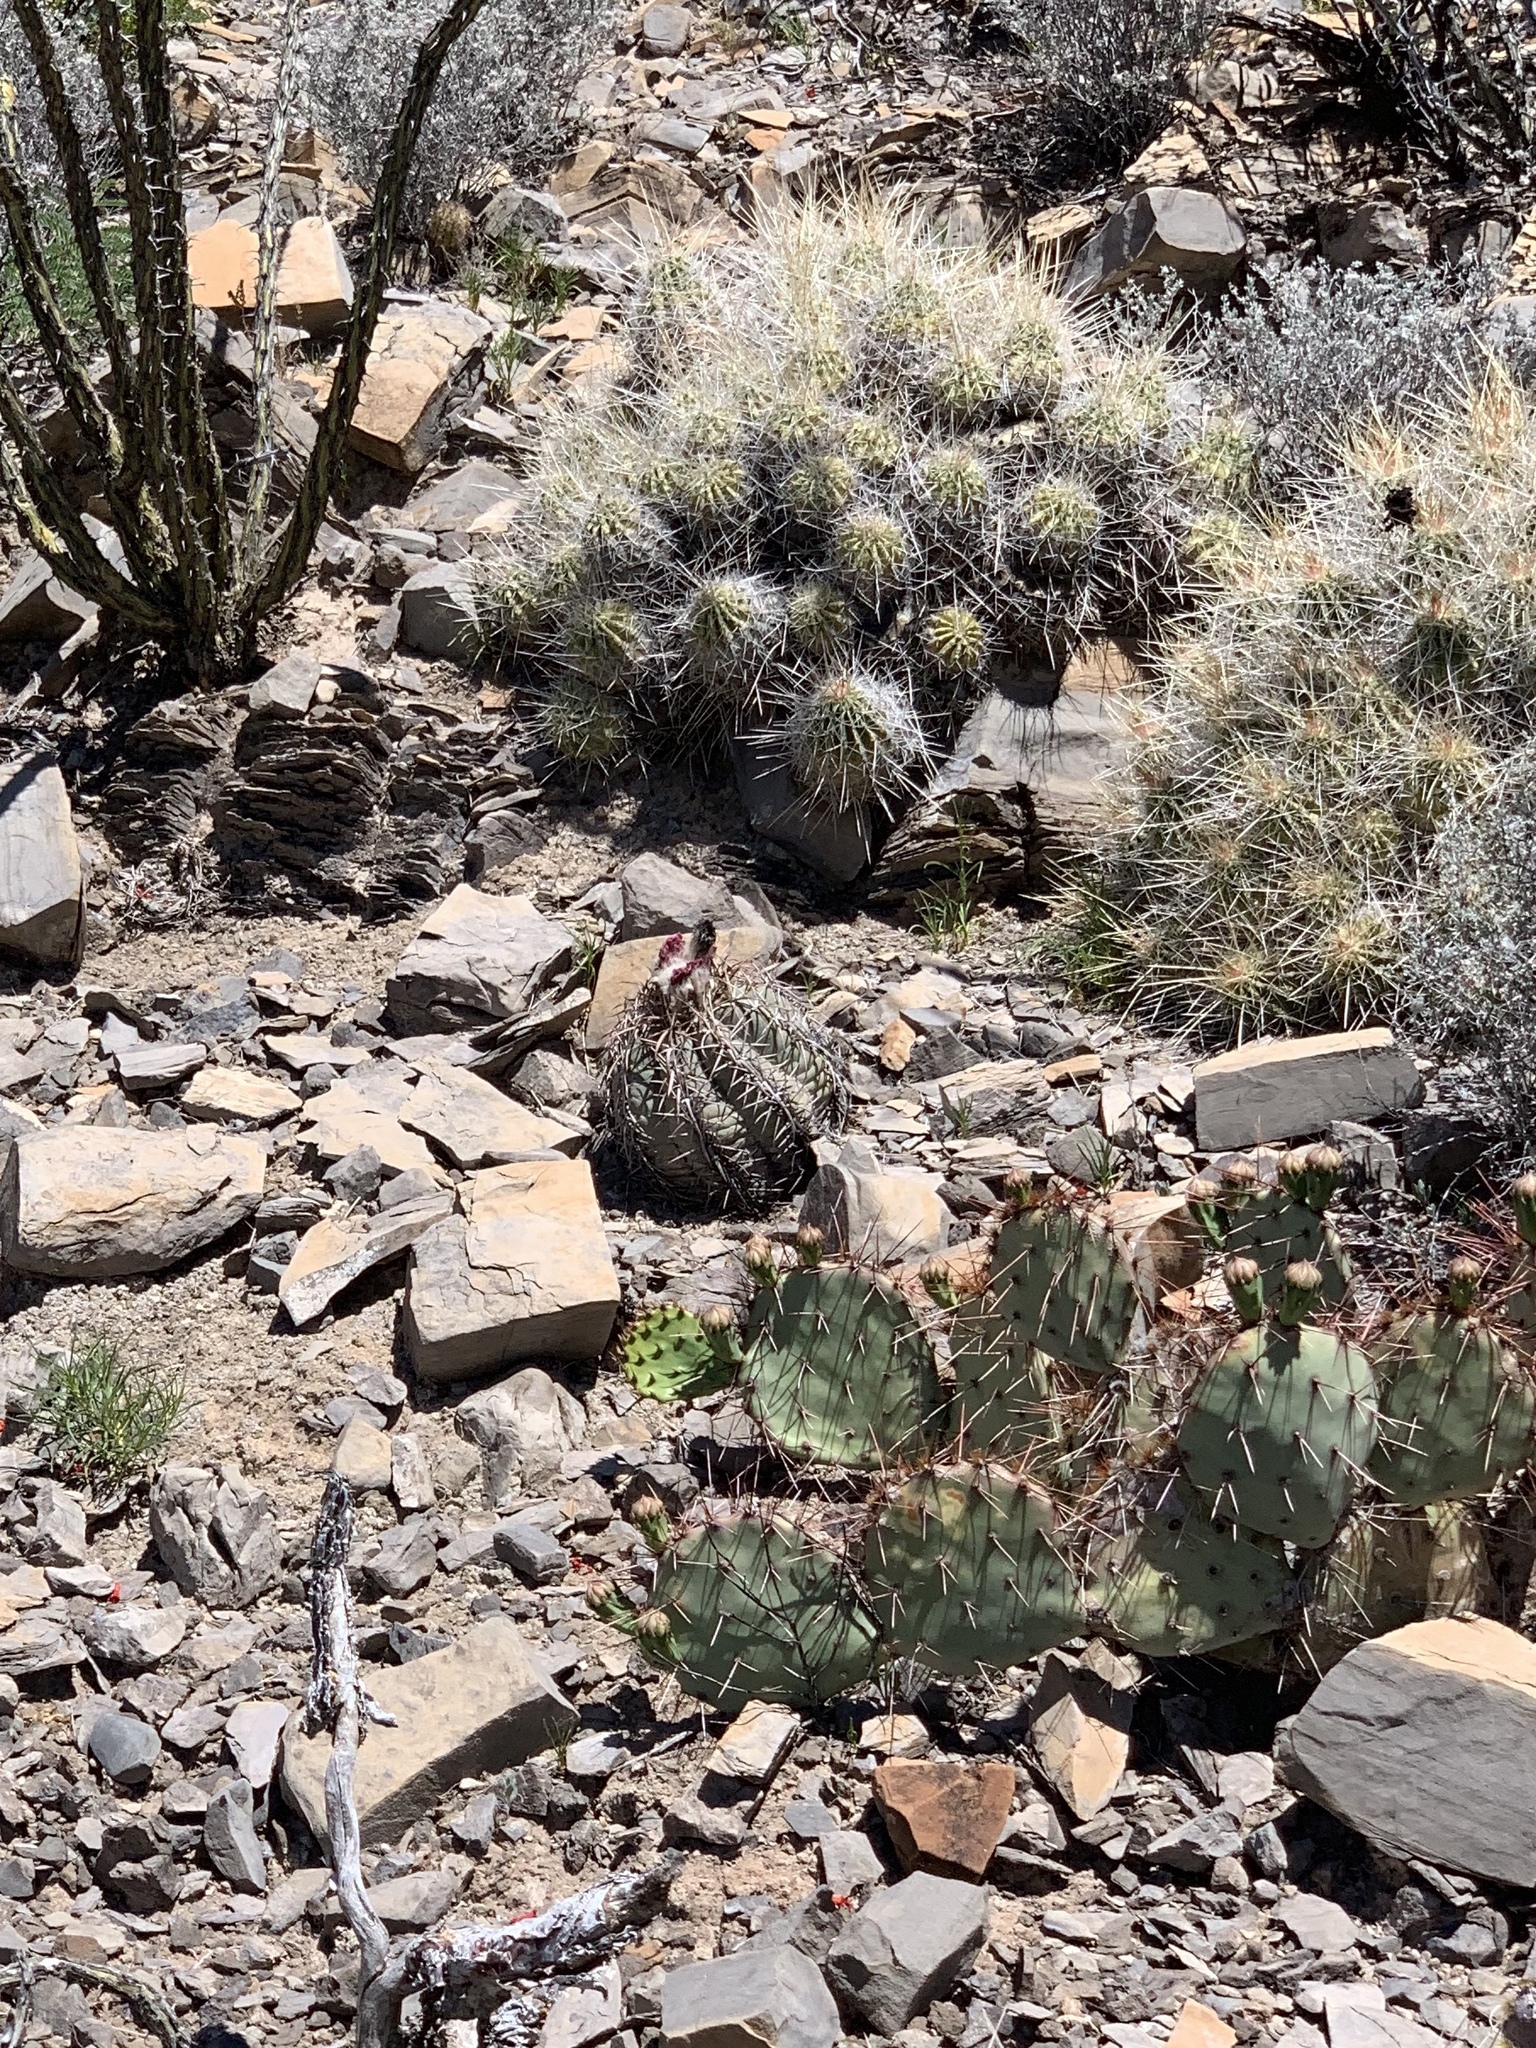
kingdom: Plantae
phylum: Tracheophyta
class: Magnoliopsida
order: Caryophyllales
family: Cactaceae
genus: Echinocactus
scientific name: Echinocactus horizonthalonius
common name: Devilshead
